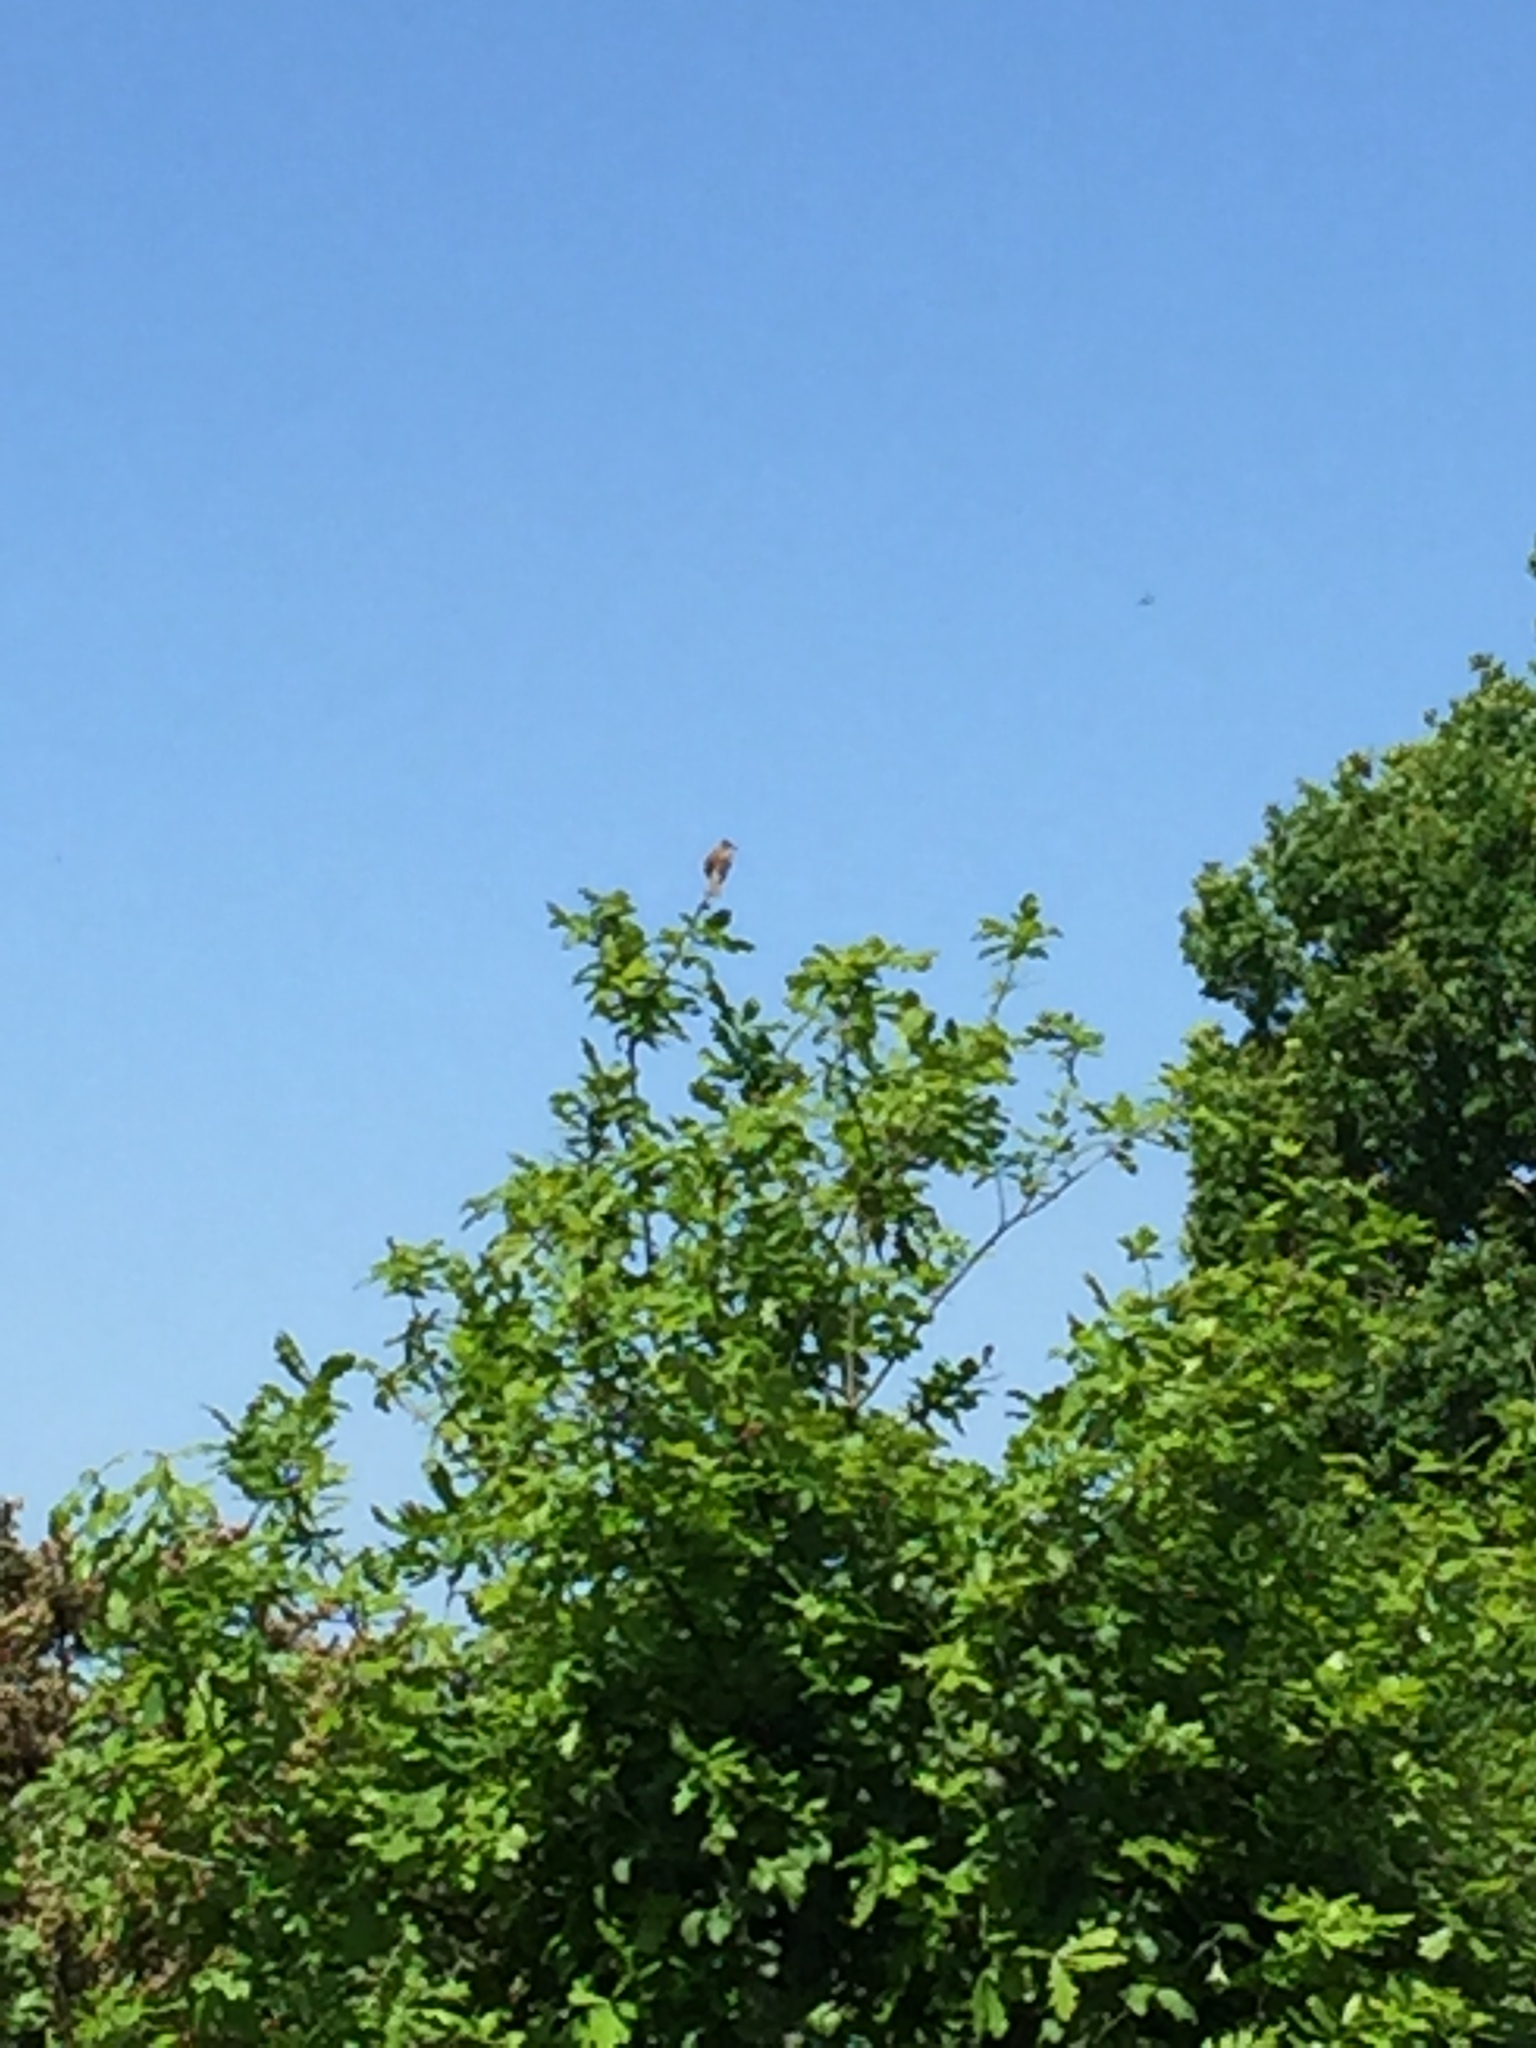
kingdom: Animalia
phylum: Chordata
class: Aves
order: Passeriformes
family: Sylviidae
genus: Sylvia
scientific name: Sylvia communis
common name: Common whitethroat
